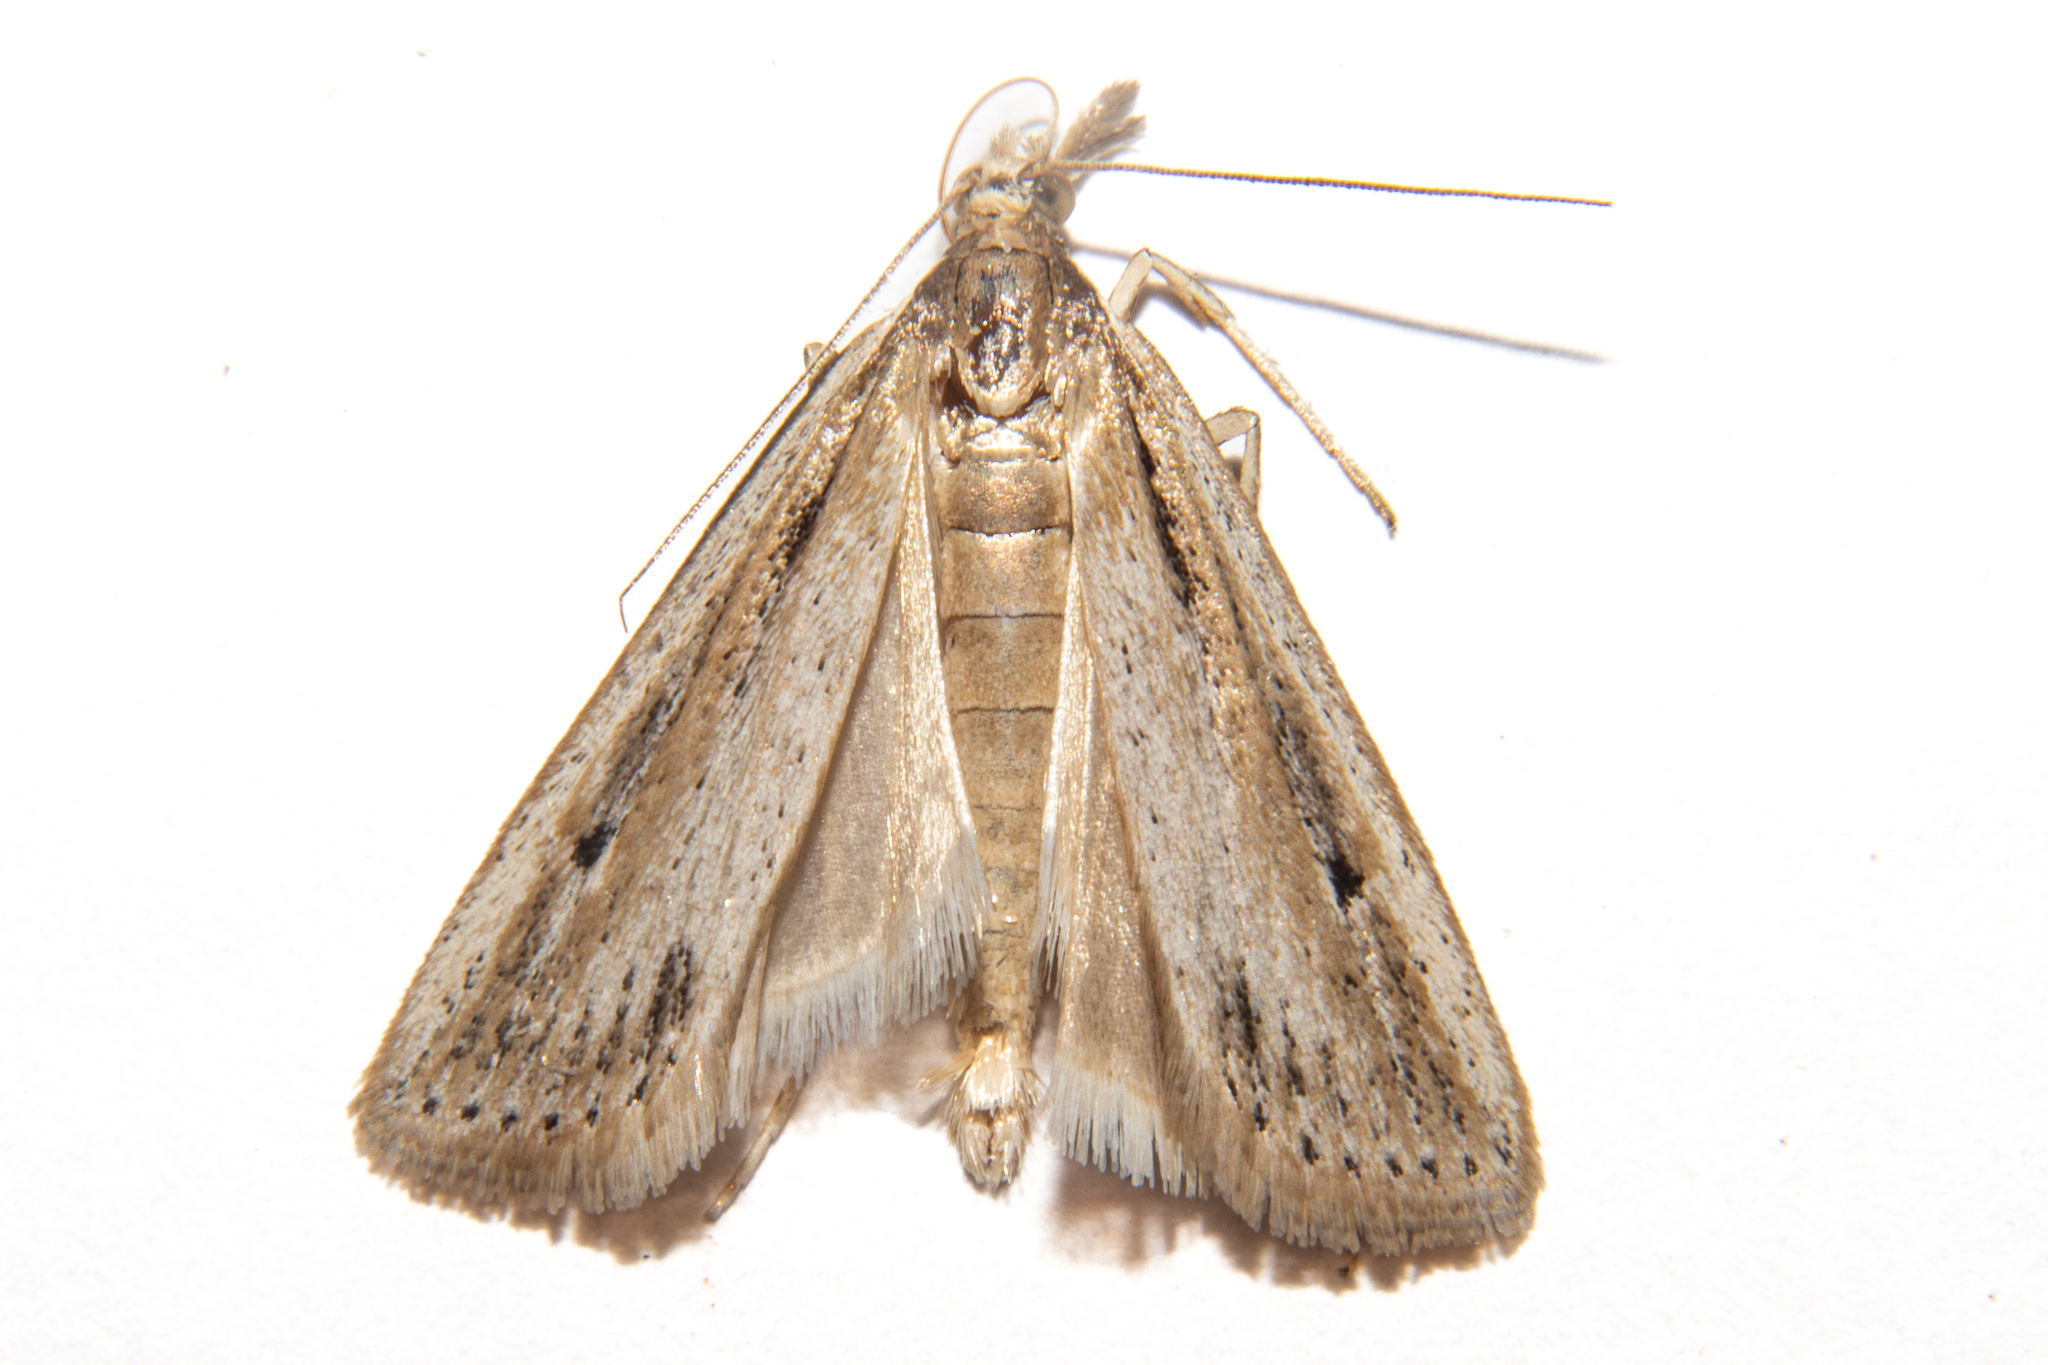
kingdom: Animalia
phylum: Arthropoda
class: Insecta
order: Lepidoptera
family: Crambidae
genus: Eudonia
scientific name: Eudonia sabulosella
